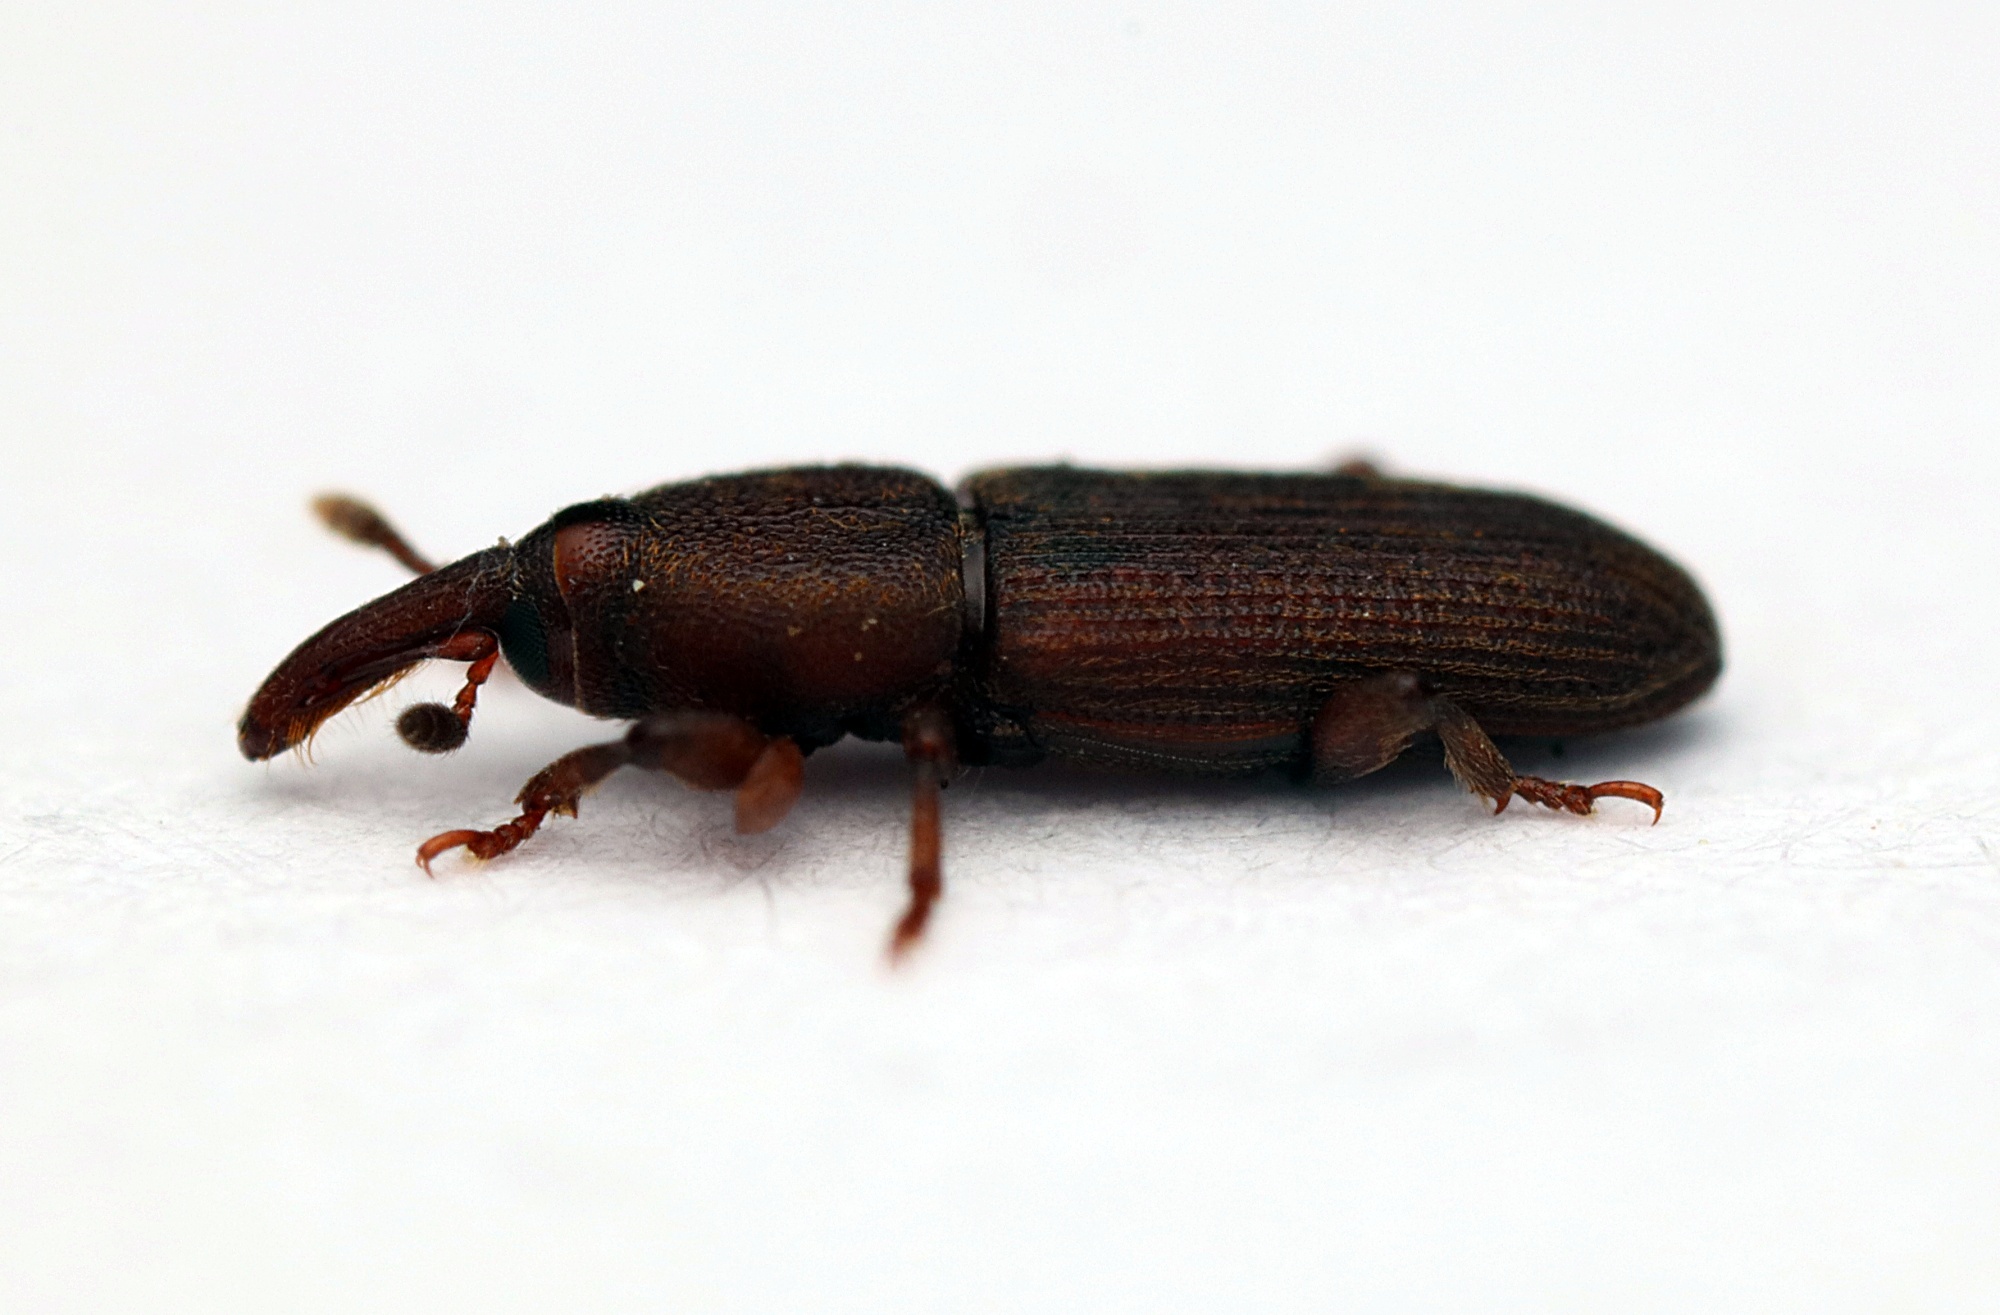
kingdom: Animalia
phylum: Arthropoda
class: Insecta
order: Coleoptera
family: Curculionidae
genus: Pogonorhinus
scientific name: Pogonorhinus opacus
